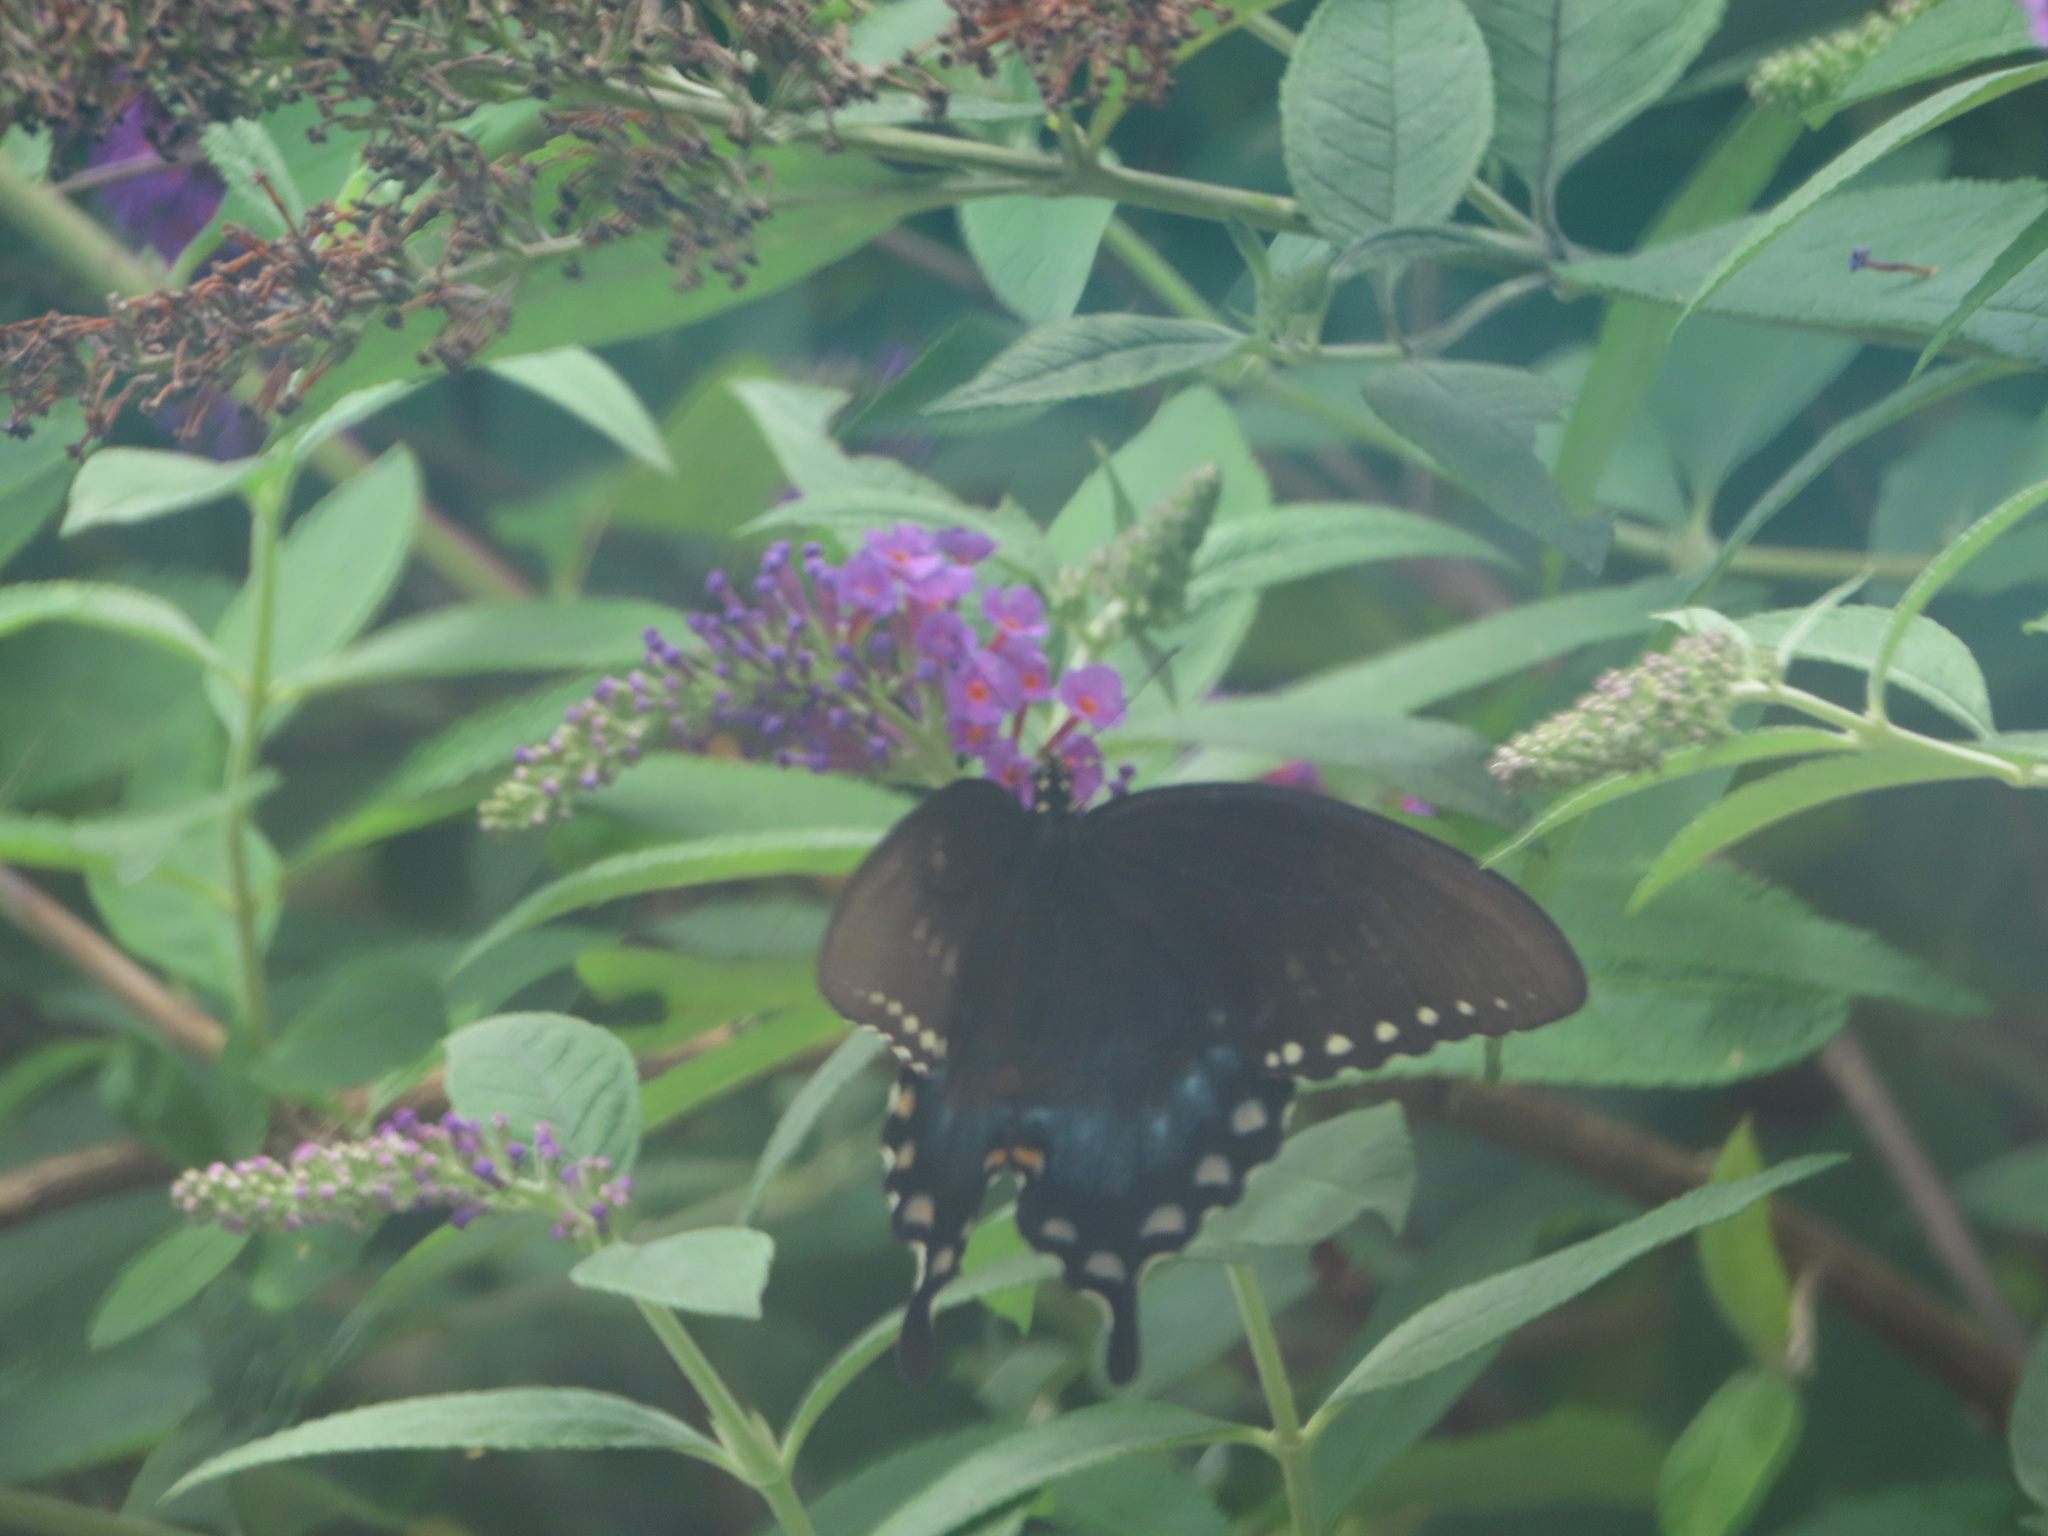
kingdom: Animalia
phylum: Arthropoda
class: Insecta
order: Lepidoptera
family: Papilionidae
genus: Papilio
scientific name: Papilio troilus
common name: Spicebush swallowtail
